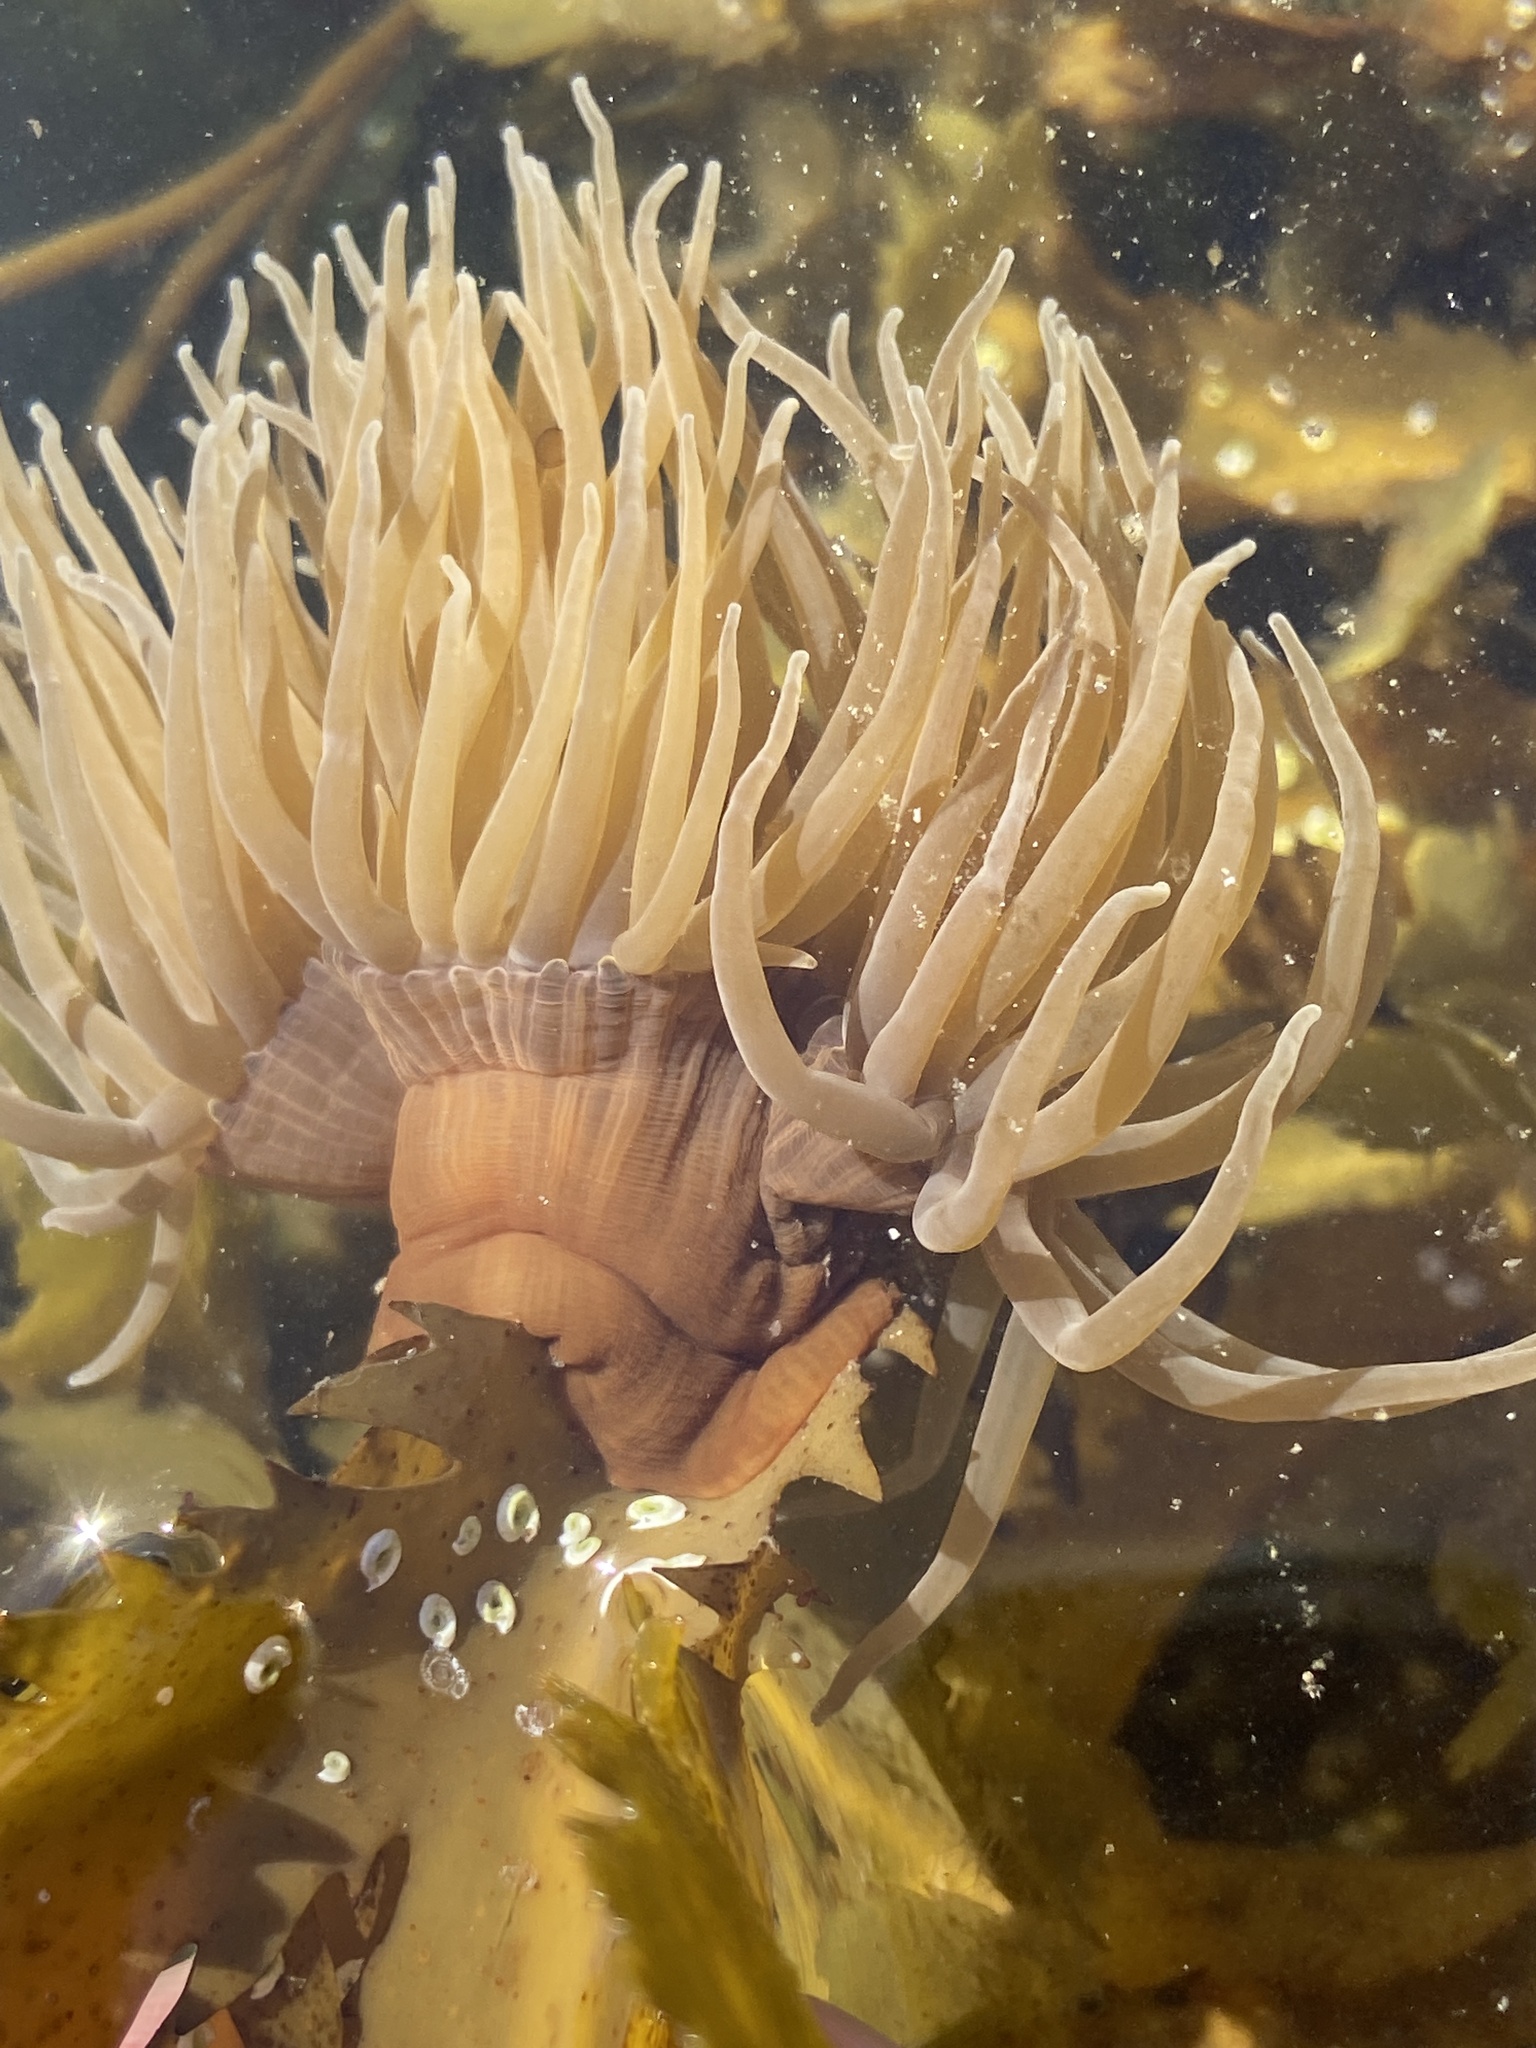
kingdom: Animalia
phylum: Cnidaria
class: Anthozoa
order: Actiniaria
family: Actiniidae
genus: Anemonia
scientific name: Anemonia viridis
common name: Snakelocks anemone
